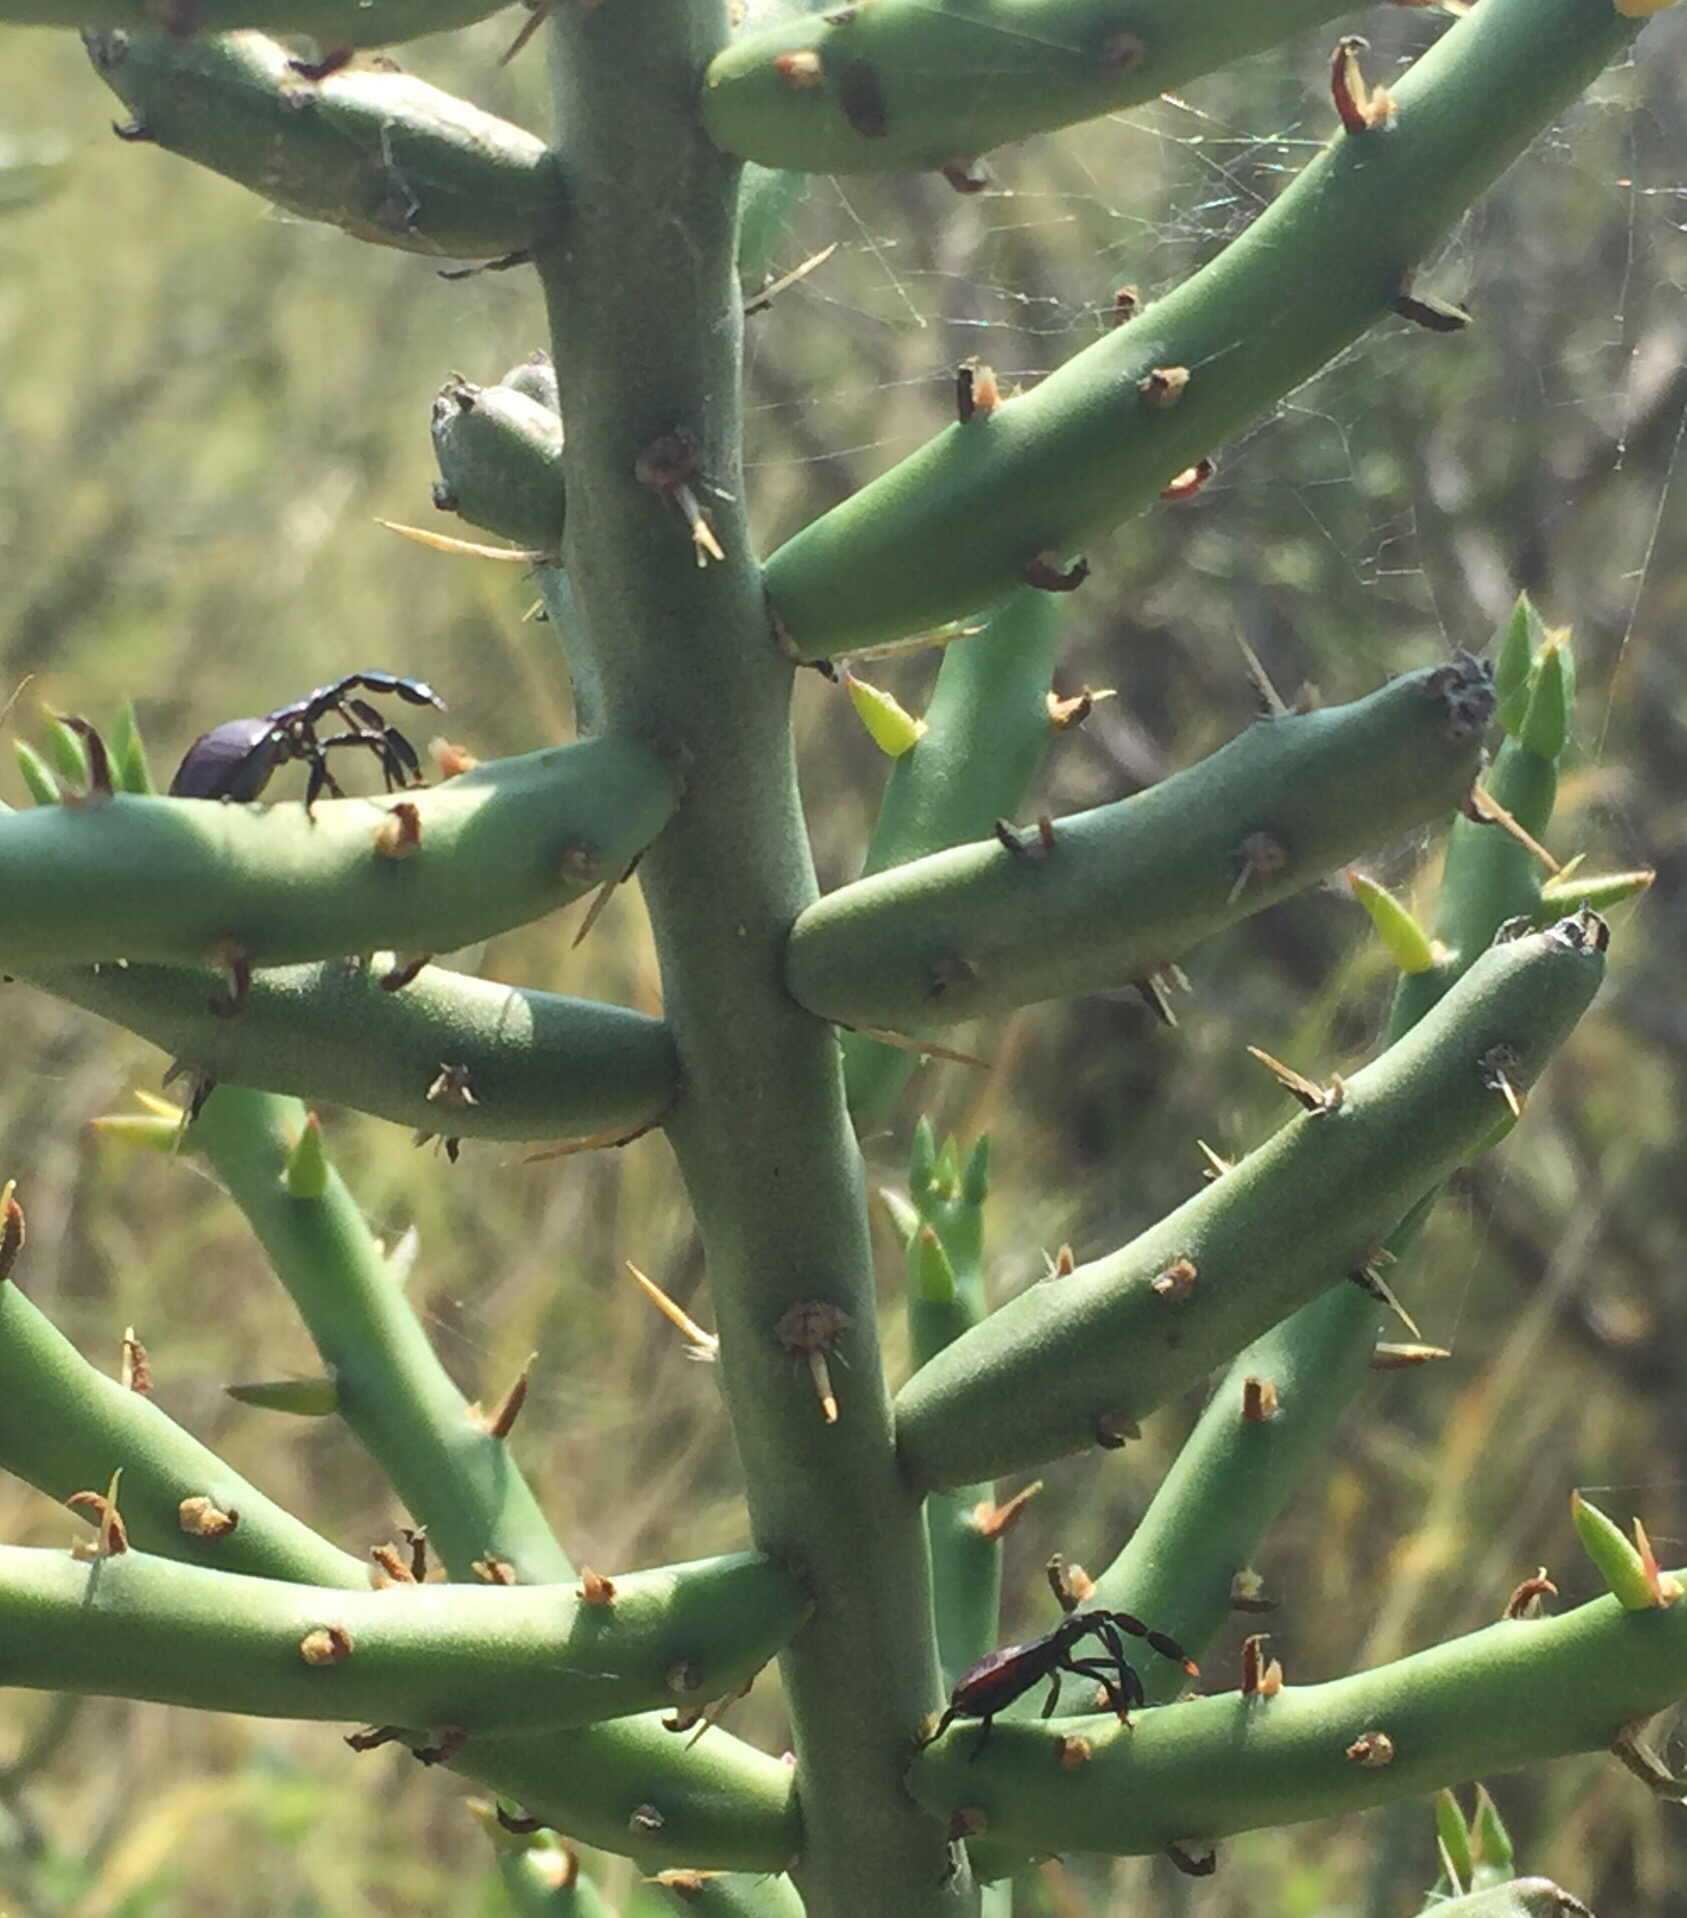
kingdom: Animalia
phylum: Arthropoda
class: Insecta
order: Hemiptera
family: Coreidae
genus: Chelinidea
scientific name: Chelinidea vittiger
